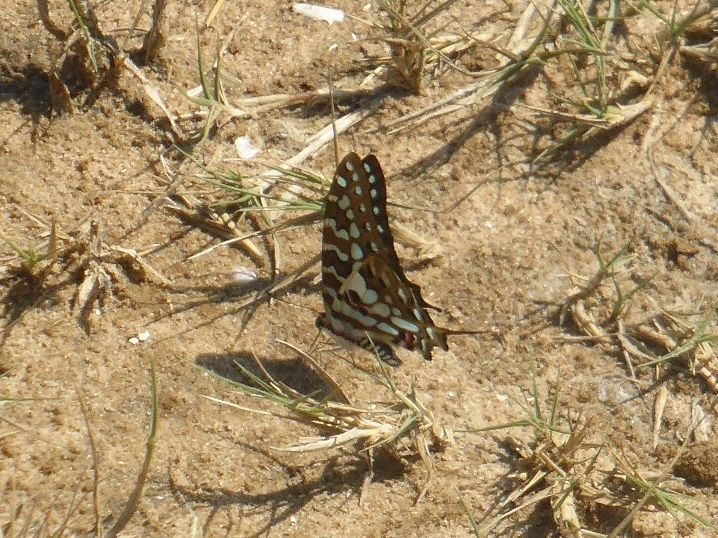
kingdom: Animalia
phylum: Arthropoda
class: Insecta
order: Lepidoptera
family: Papilionidae
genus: Graphium
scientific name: Graphium antheus
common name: Large striped swordtail
